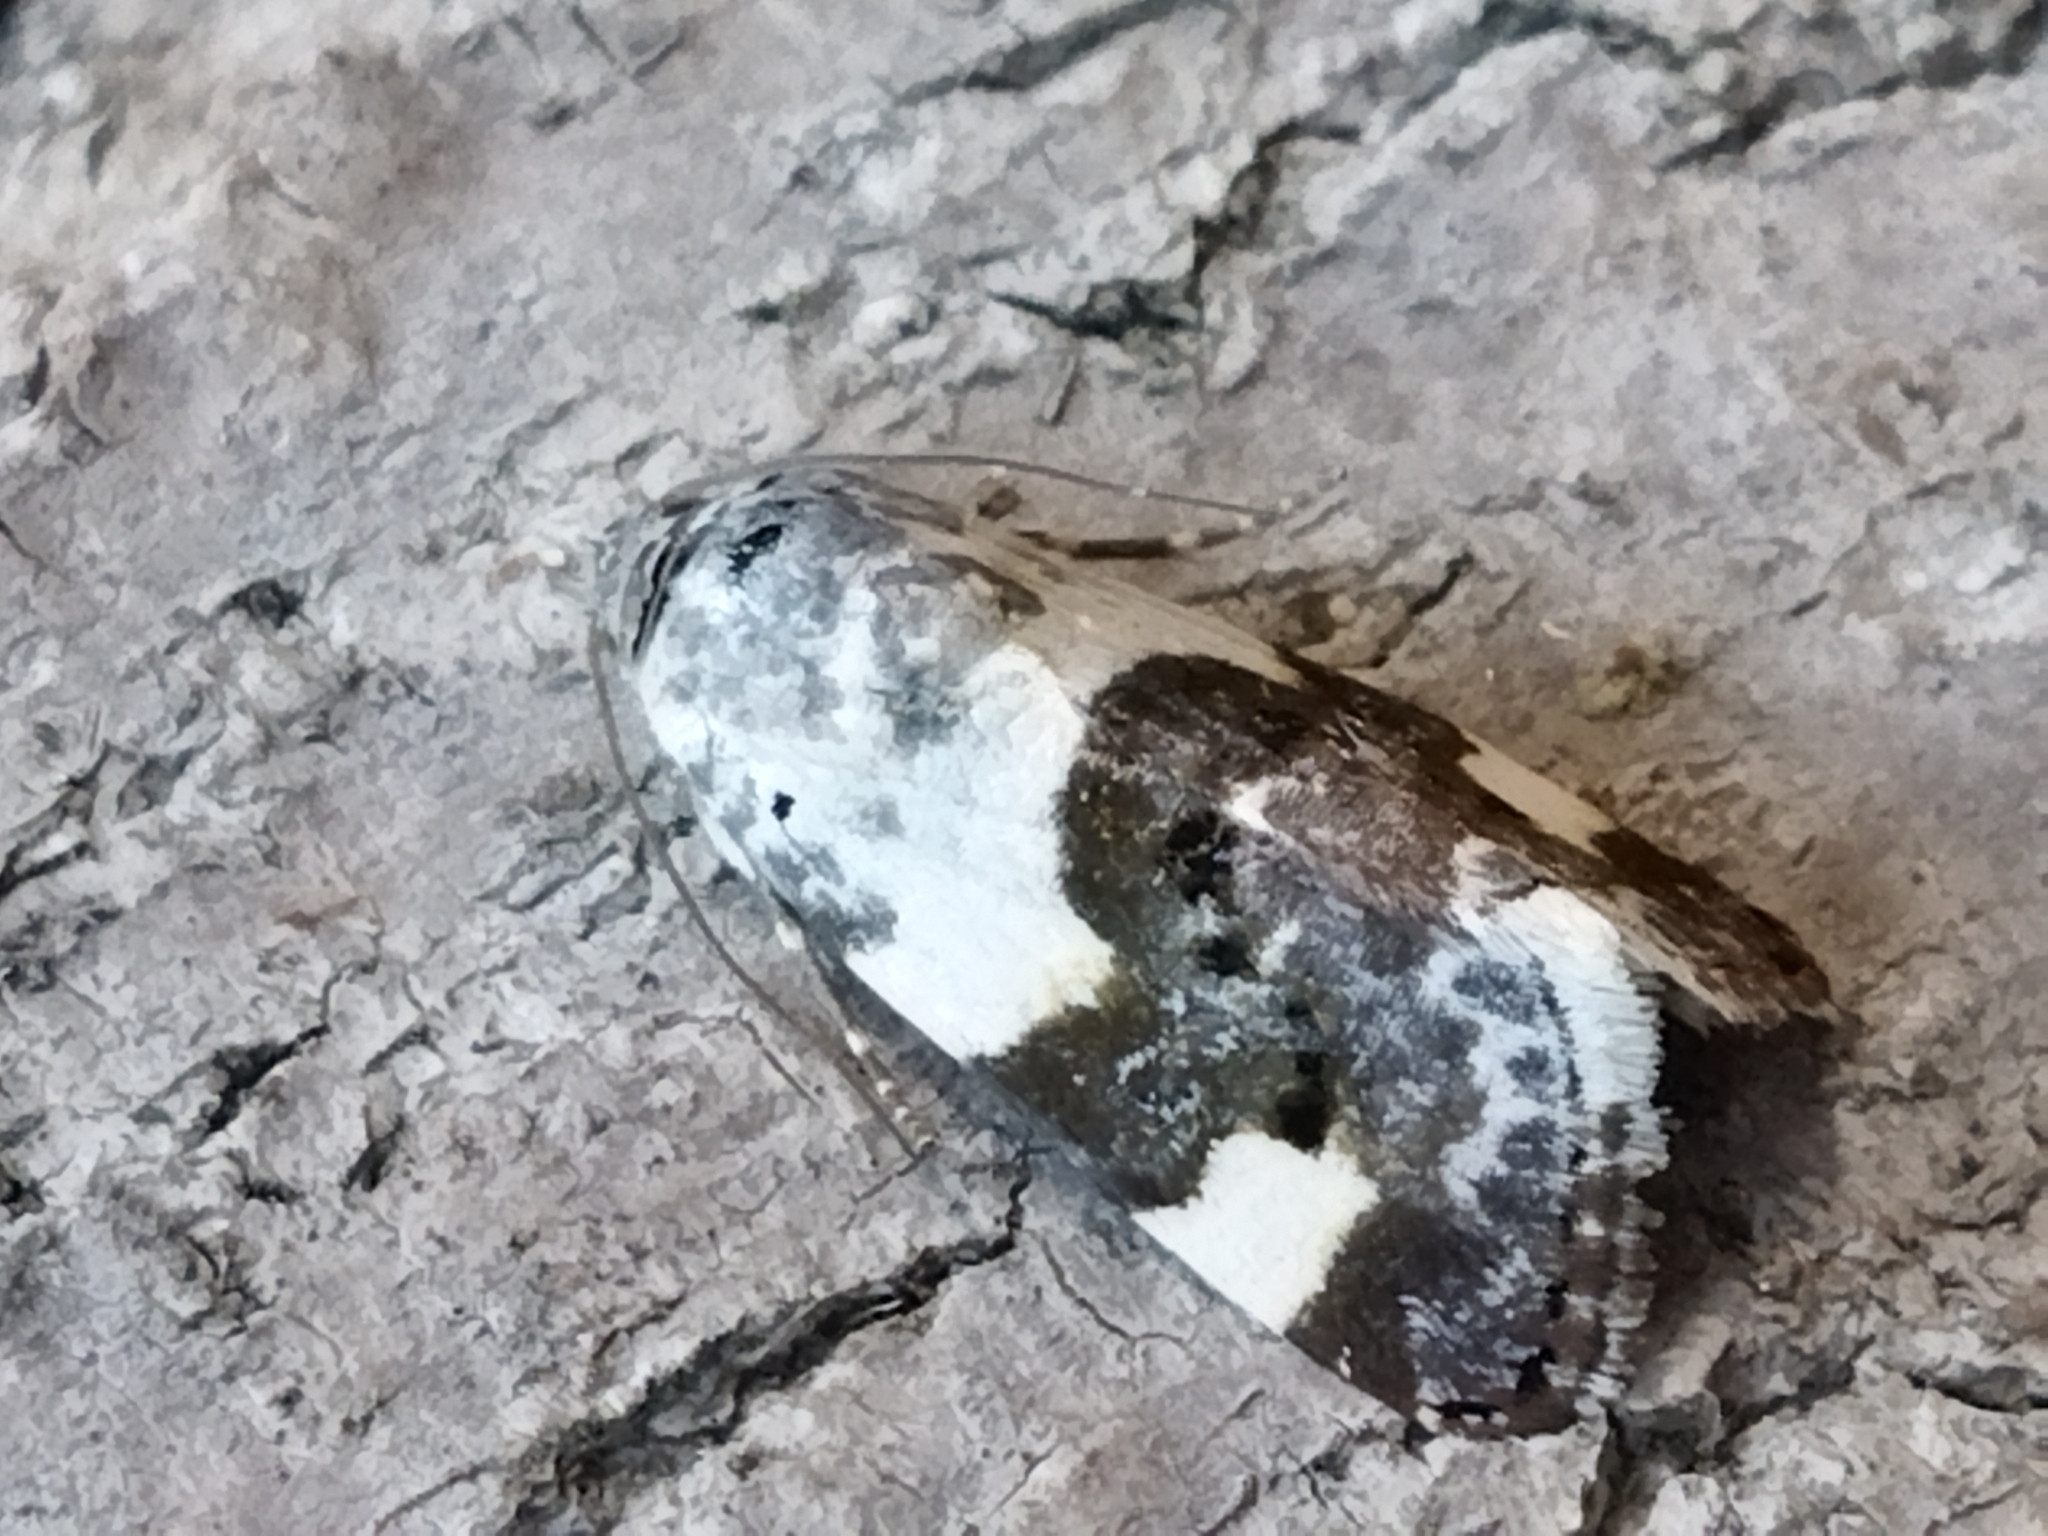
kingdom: Animalia
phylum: Arthropoda
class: Insecta
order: Lepidoptera
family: Noctuidae
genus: Acontia
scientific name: Acontia lucida
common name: Pale shoulder
